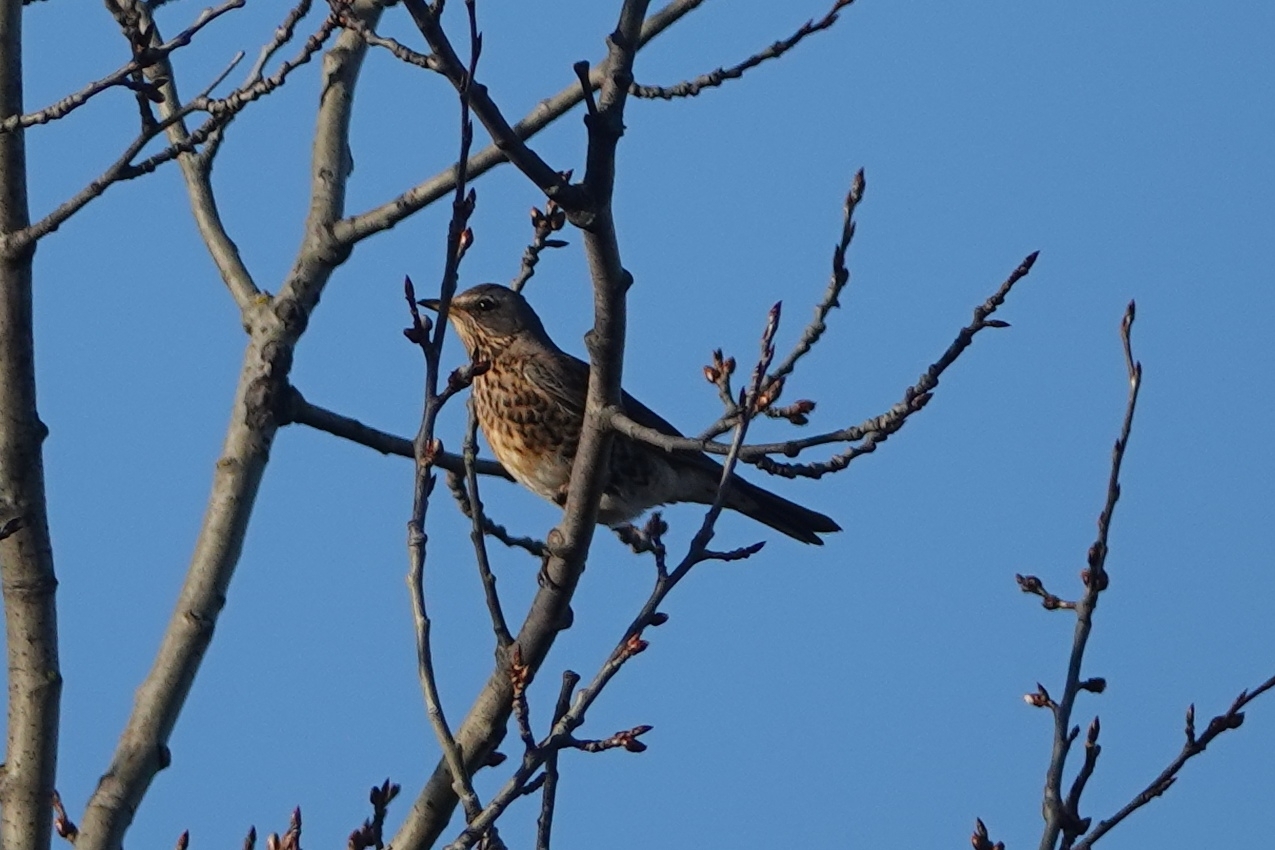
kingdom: Animalia
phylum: Chordata
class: Aves
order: Passeriformes
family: Turdidae
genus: Turdus
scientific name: Turdus pilaris
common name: Fieldfare
